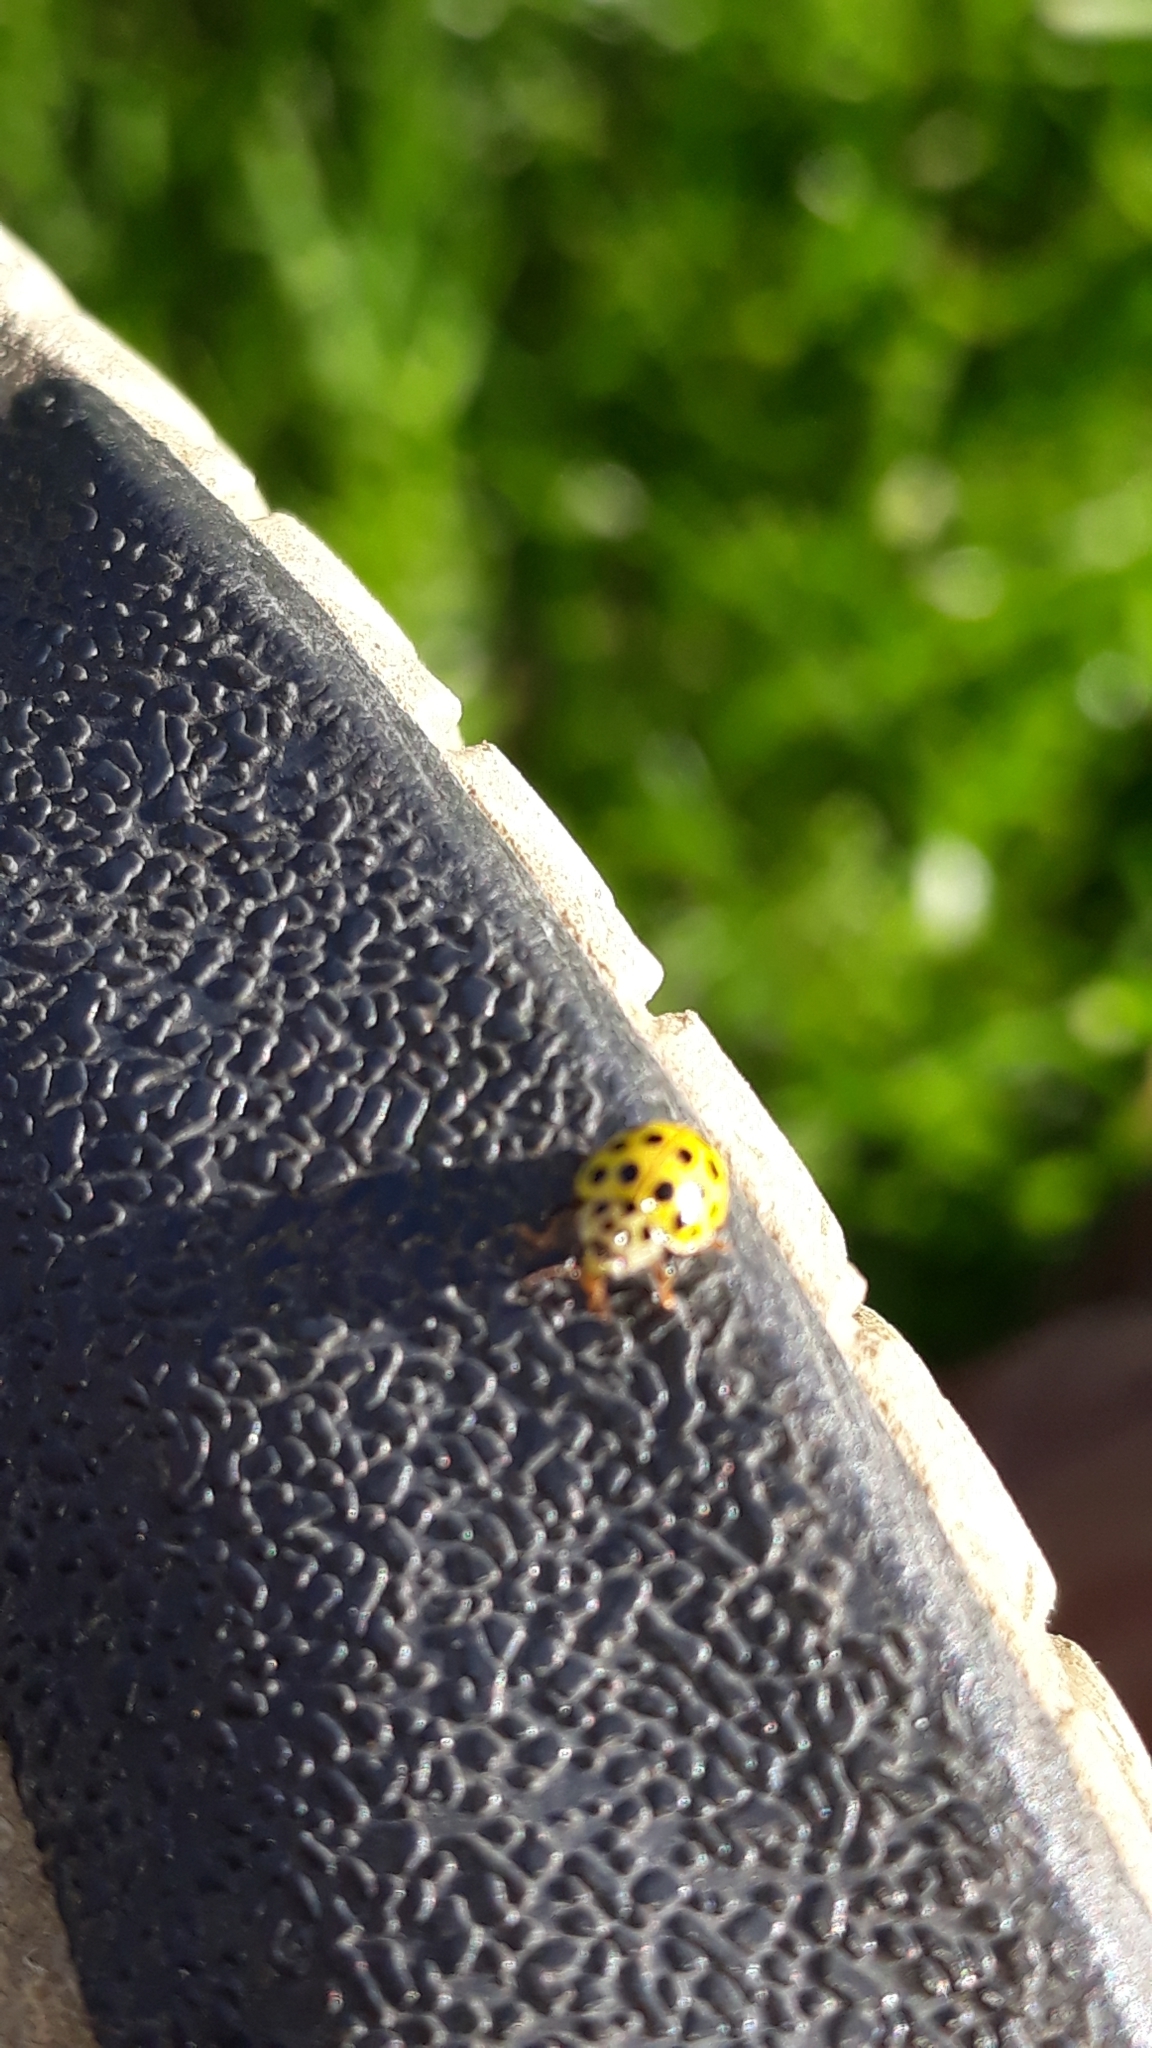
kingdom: Animalia
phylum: Arthropoda
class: Insecta
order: Coleoptera
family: Coccinellidae
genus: Psyllobora
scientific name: Psyllobora vigintiduopunctata
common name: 22-spot ladybird
